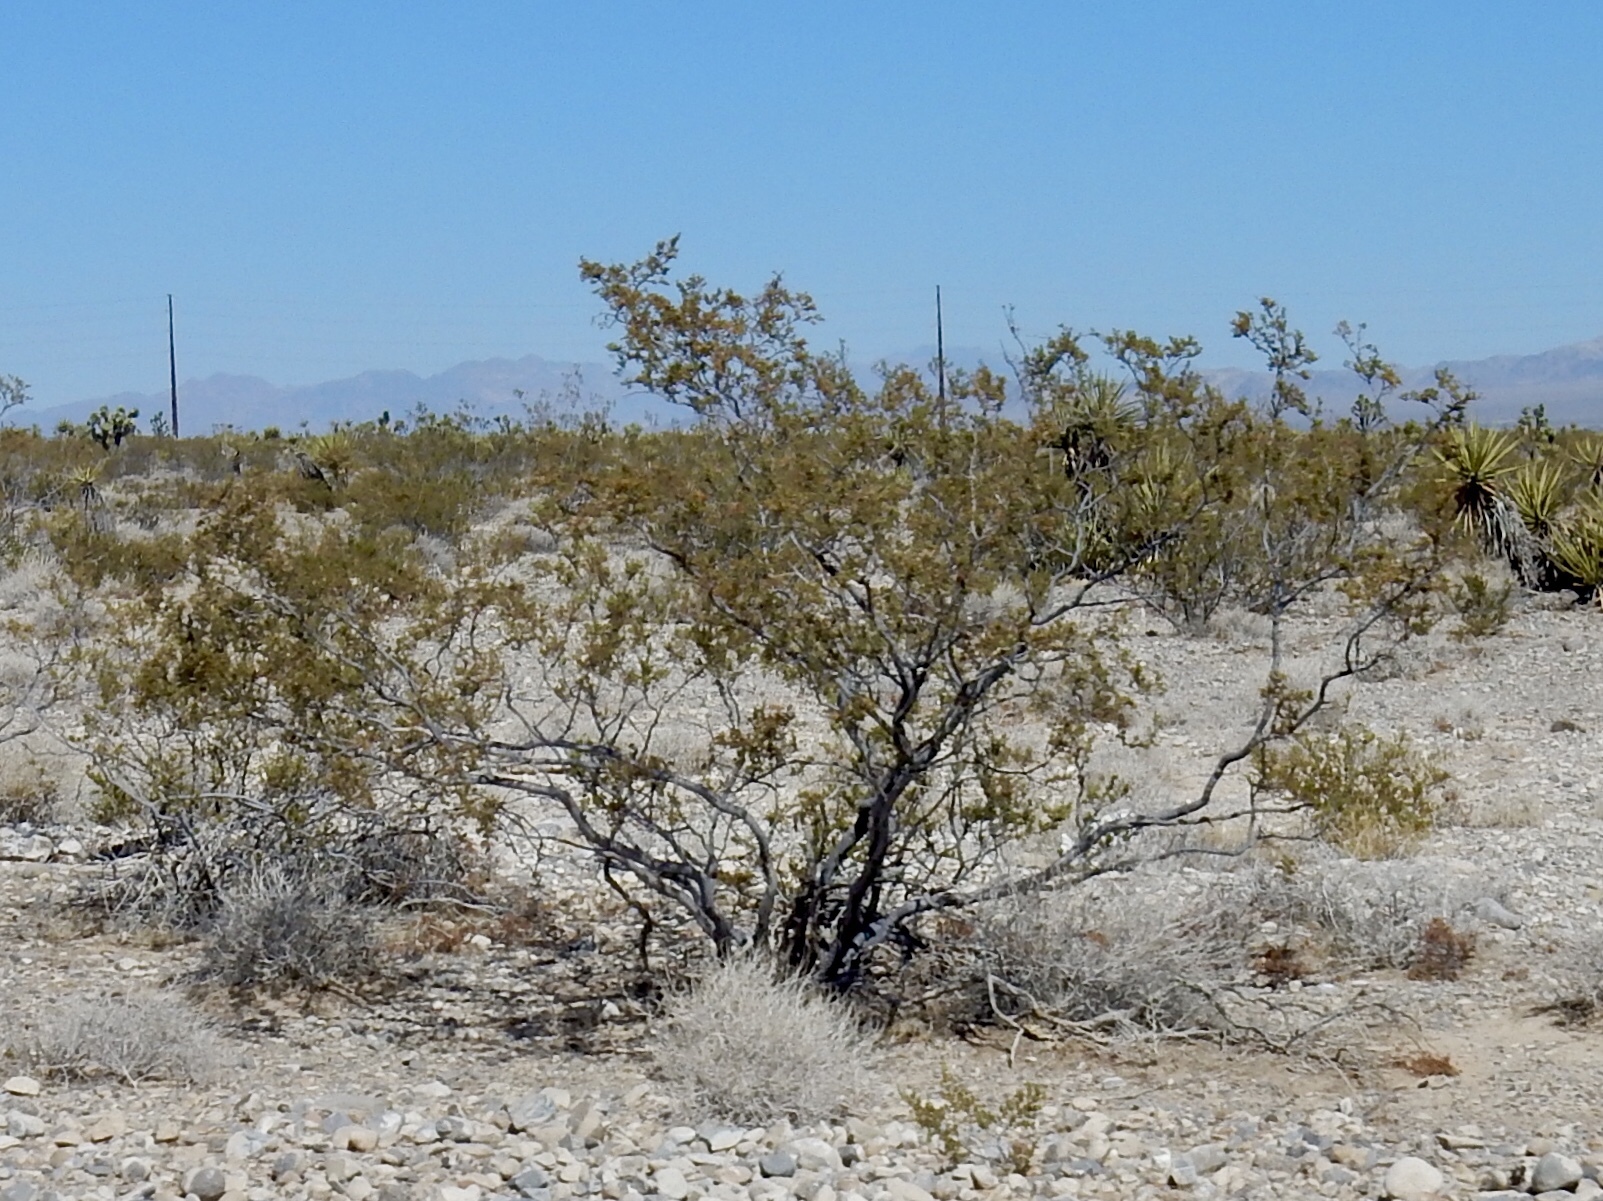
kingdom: Plantae
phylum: Tracheophyta
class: Magnoliopsida
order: Zygophyllales
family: Zygophyllaceae
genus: Larrea
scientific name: Larrea tridentata
